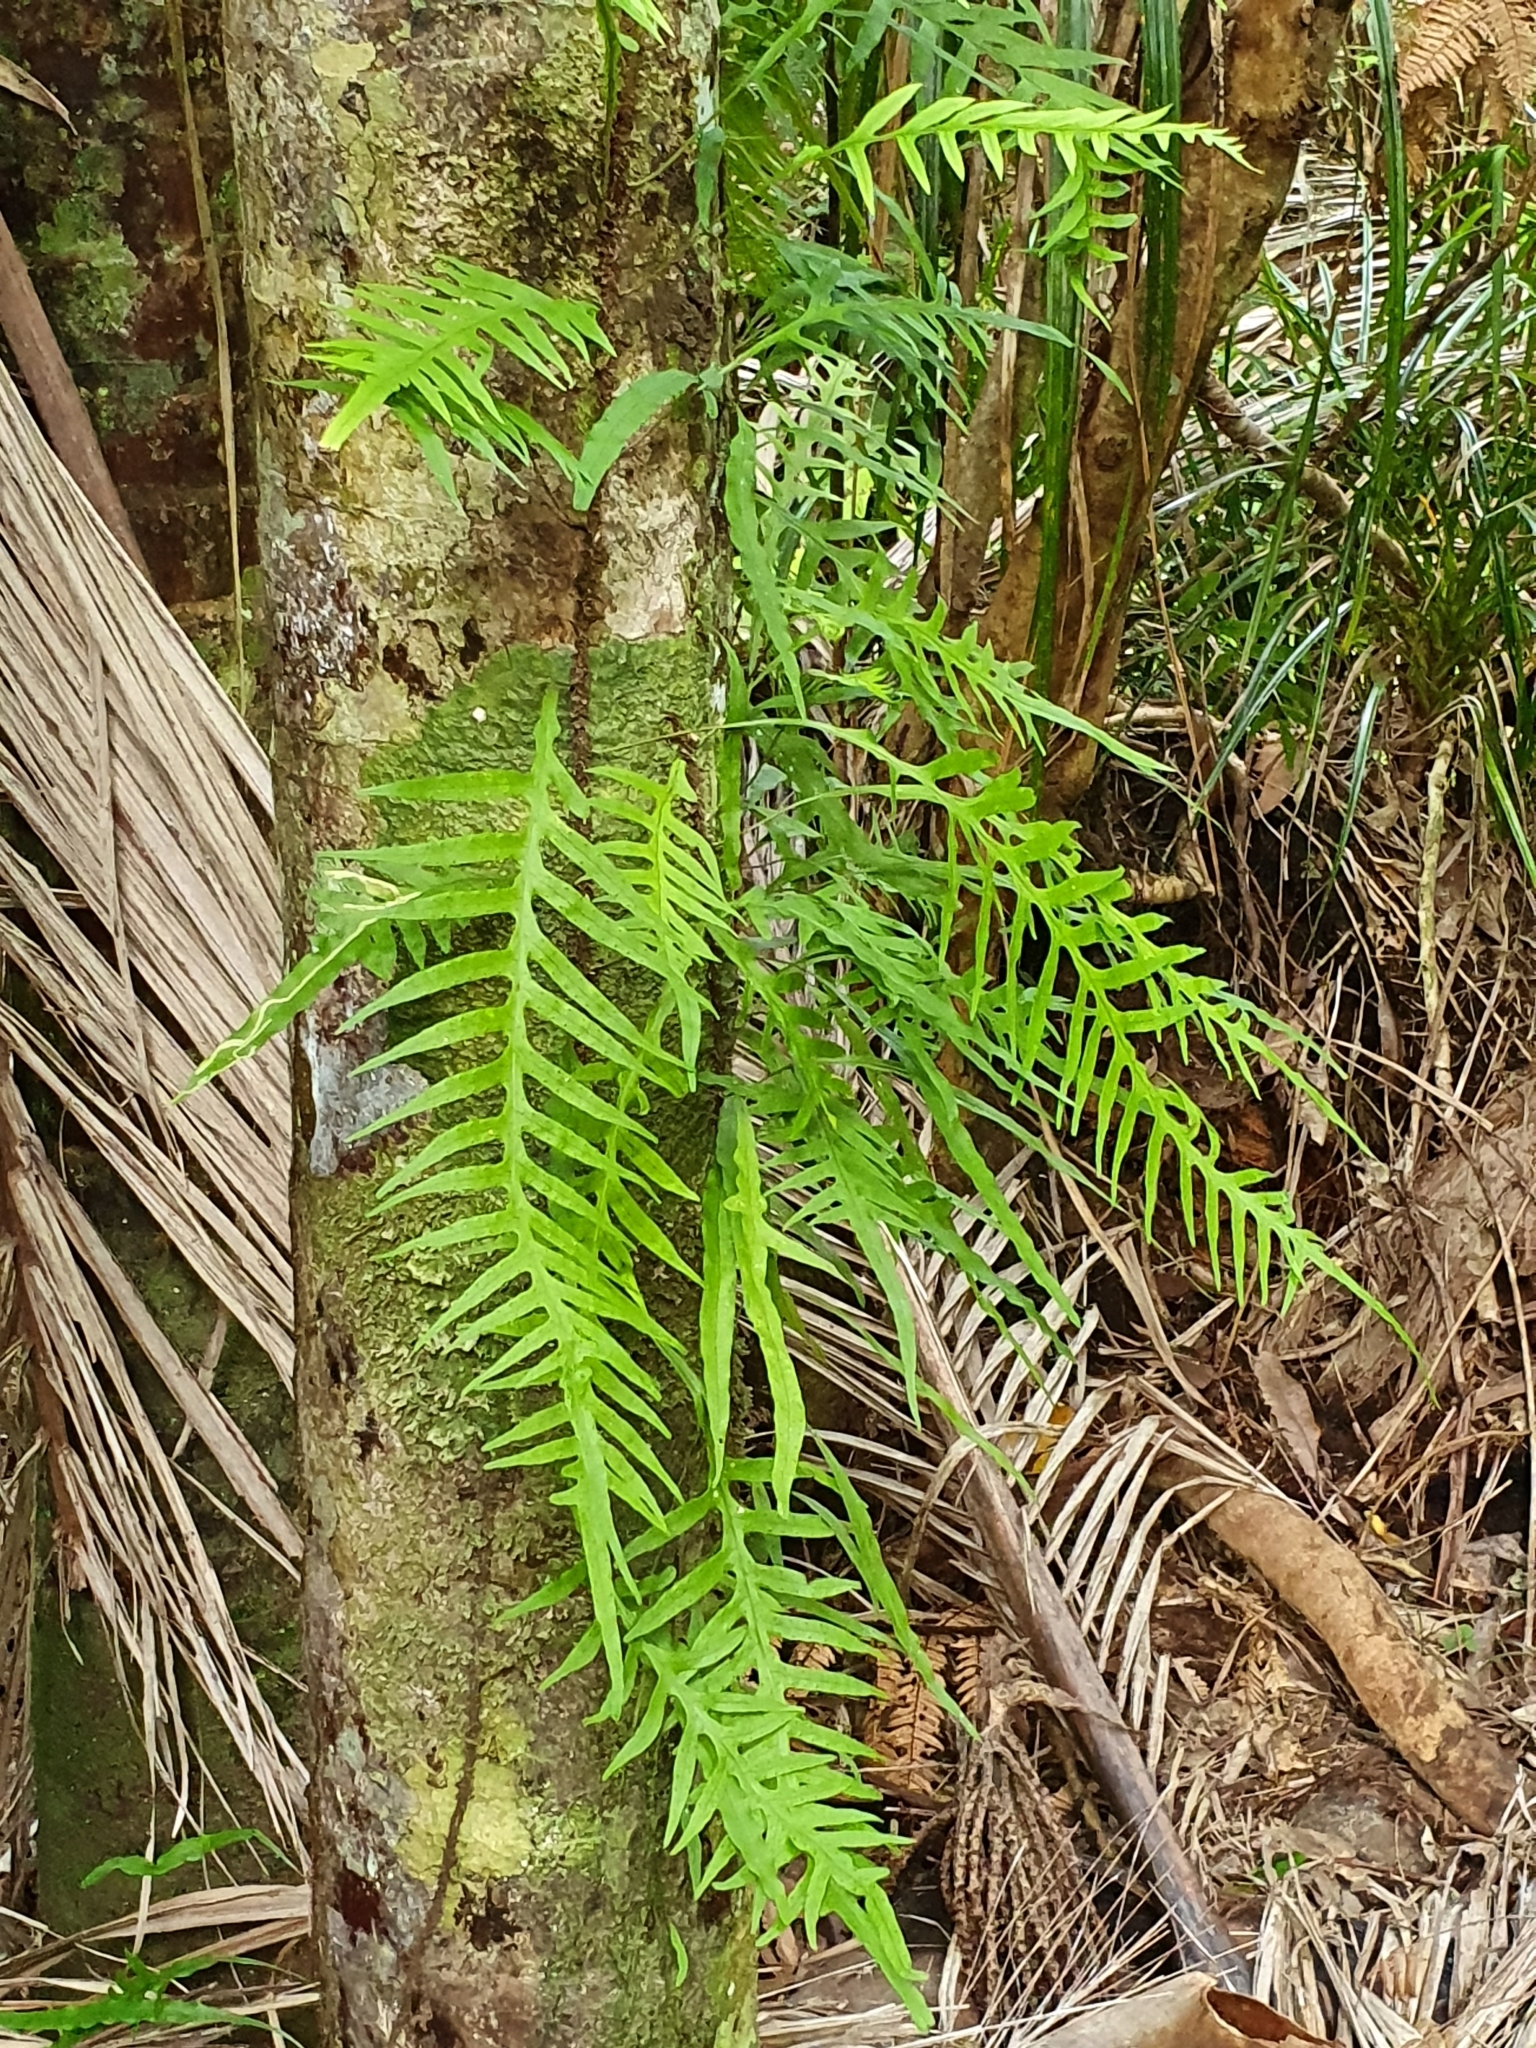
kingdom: Plantae
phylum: Tracheophyta
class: Polypodiopsida
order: Polypodiales
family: Polypodiaceae
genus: Lecanopteris
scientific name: Lecanopteris scandens
